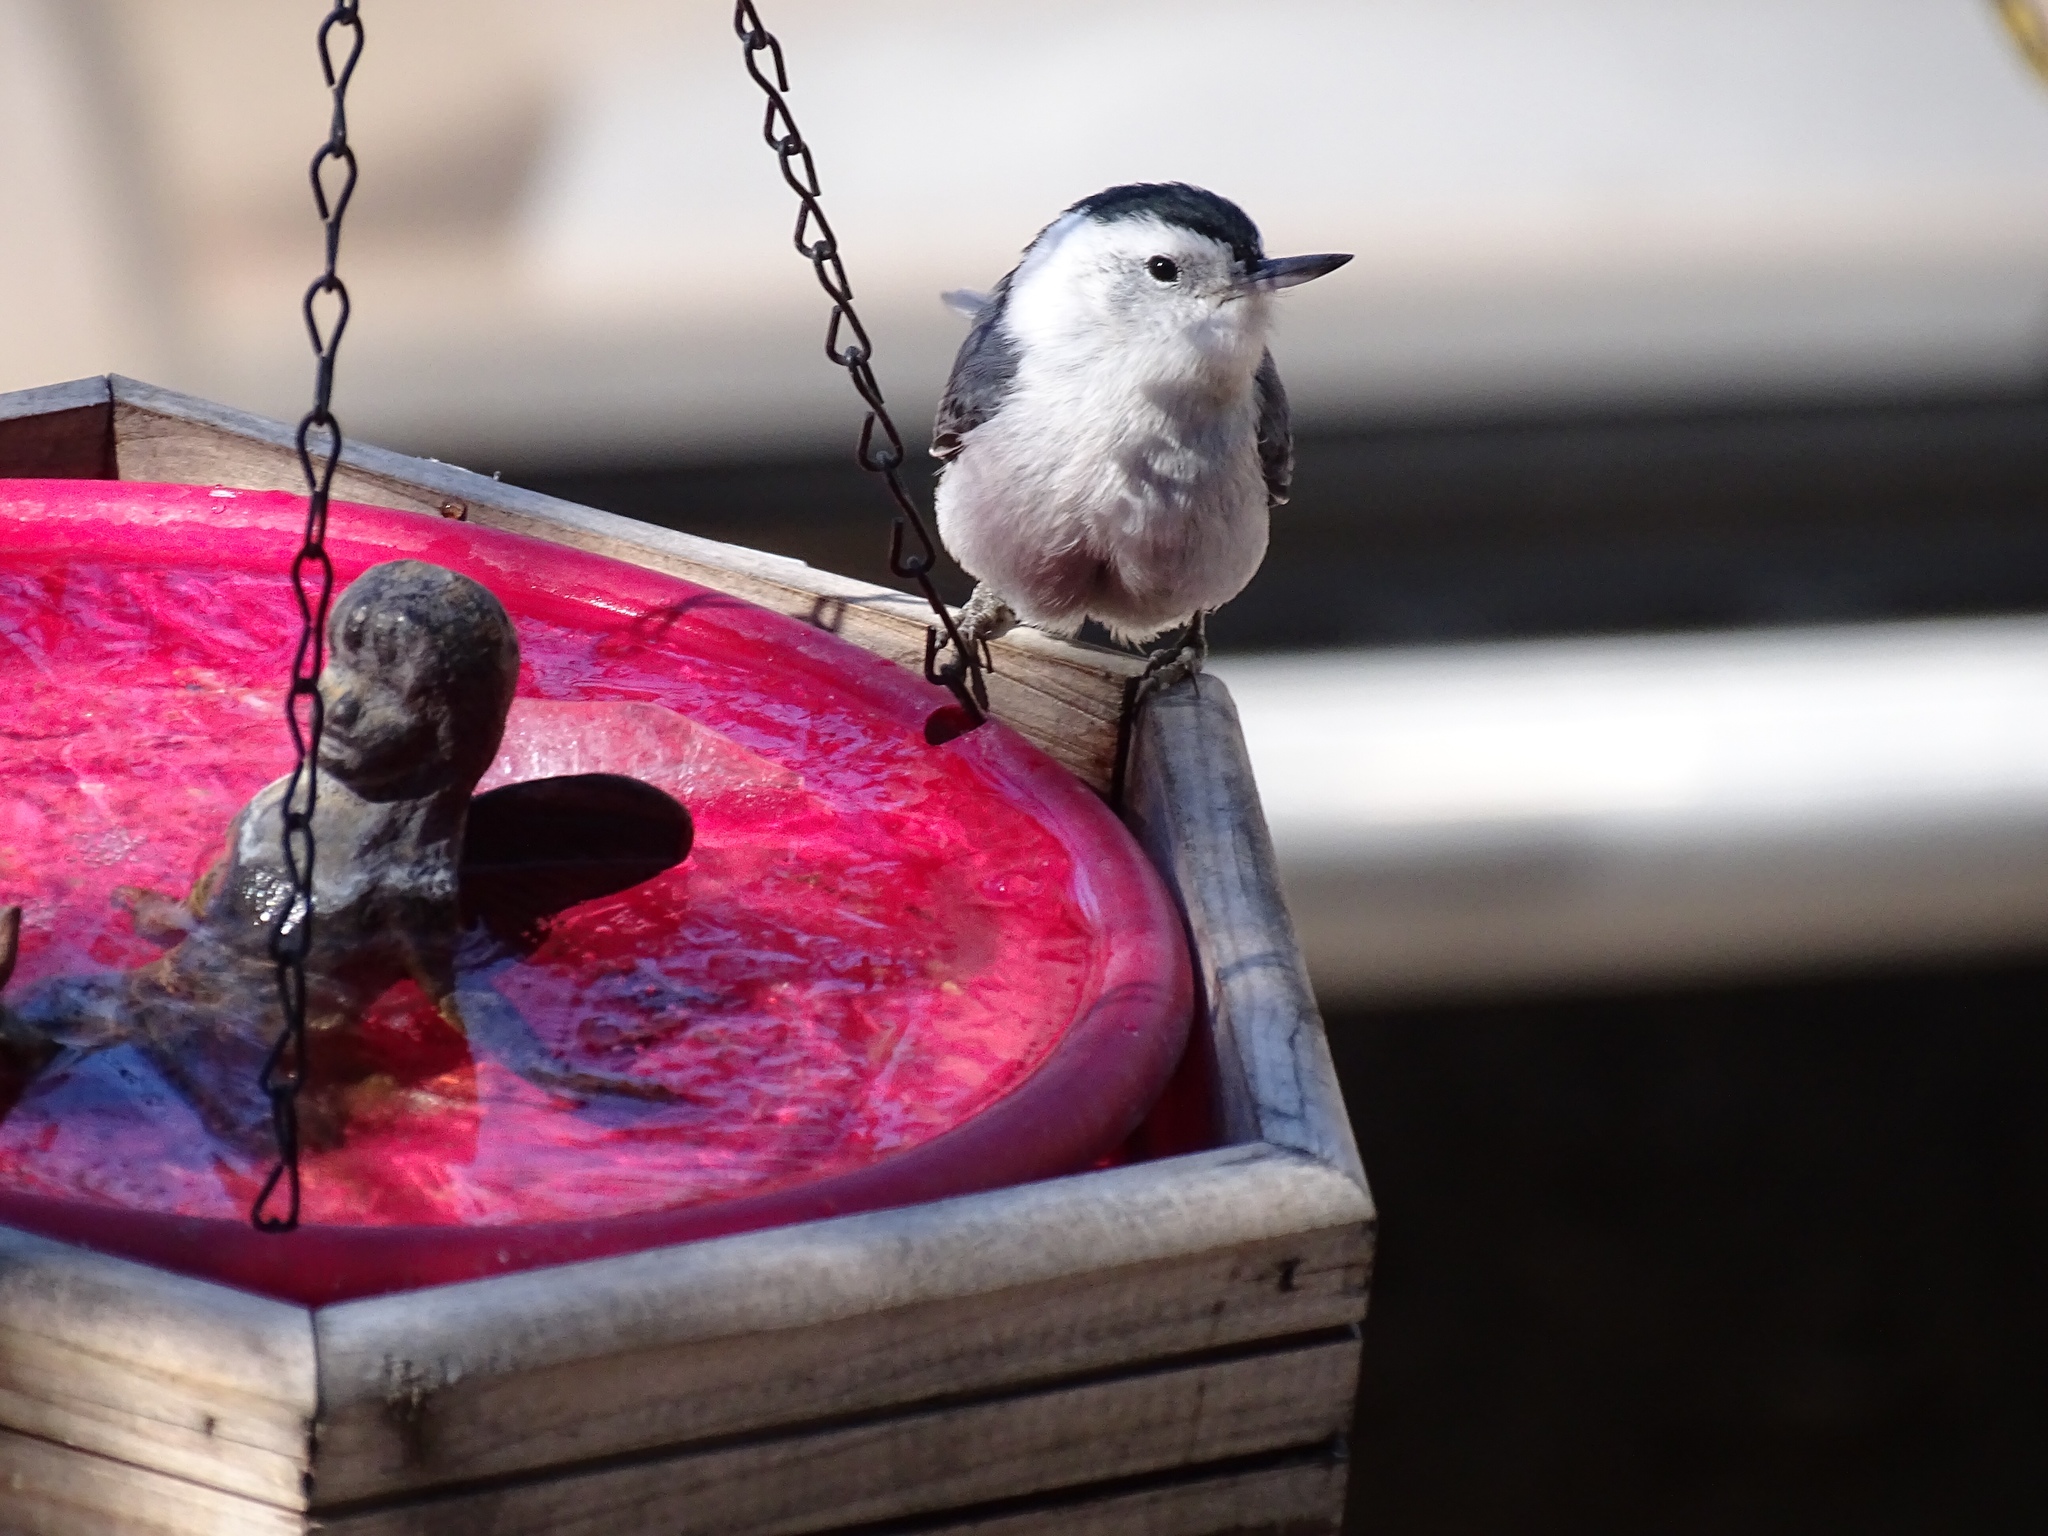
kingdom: Animalia
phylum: Chordata
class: Aves
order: Passeriformes
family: Sittidae
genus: Sitta
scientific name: Sitta carolinensis
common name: White-breasted nuthatch
